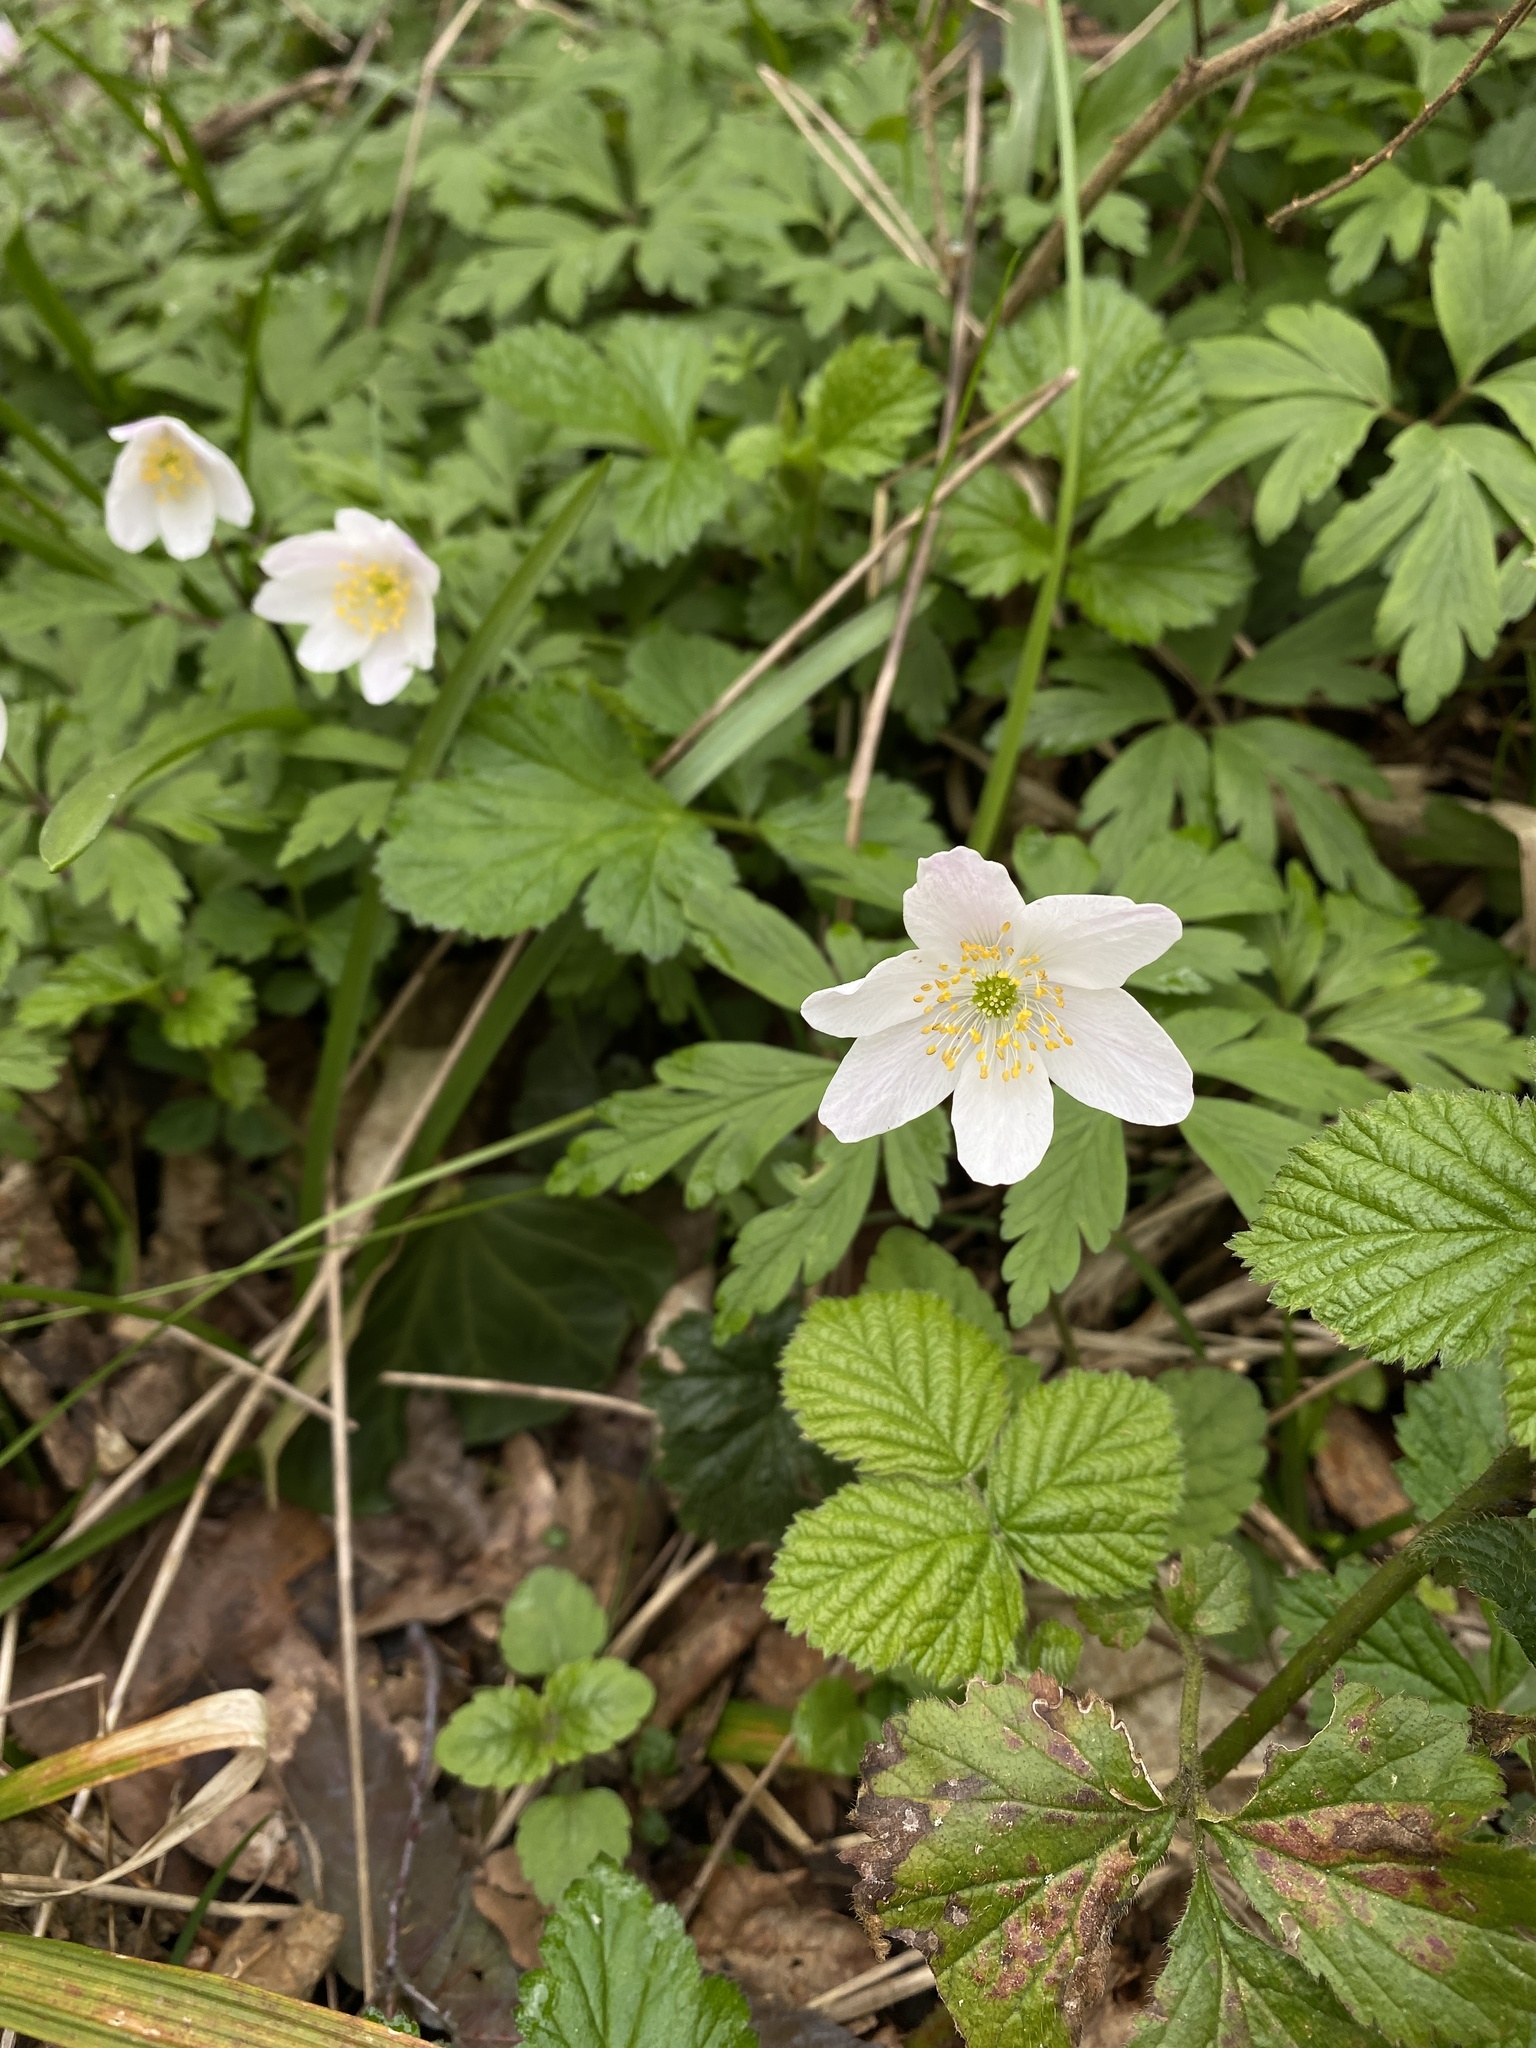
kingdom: Plantae
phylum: Tracheophyta
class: Magnoliopsida
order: Ranunculales
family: Ranunculaceae
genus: Anemone
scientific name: Anemone nemorosa
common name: Wood anemone
